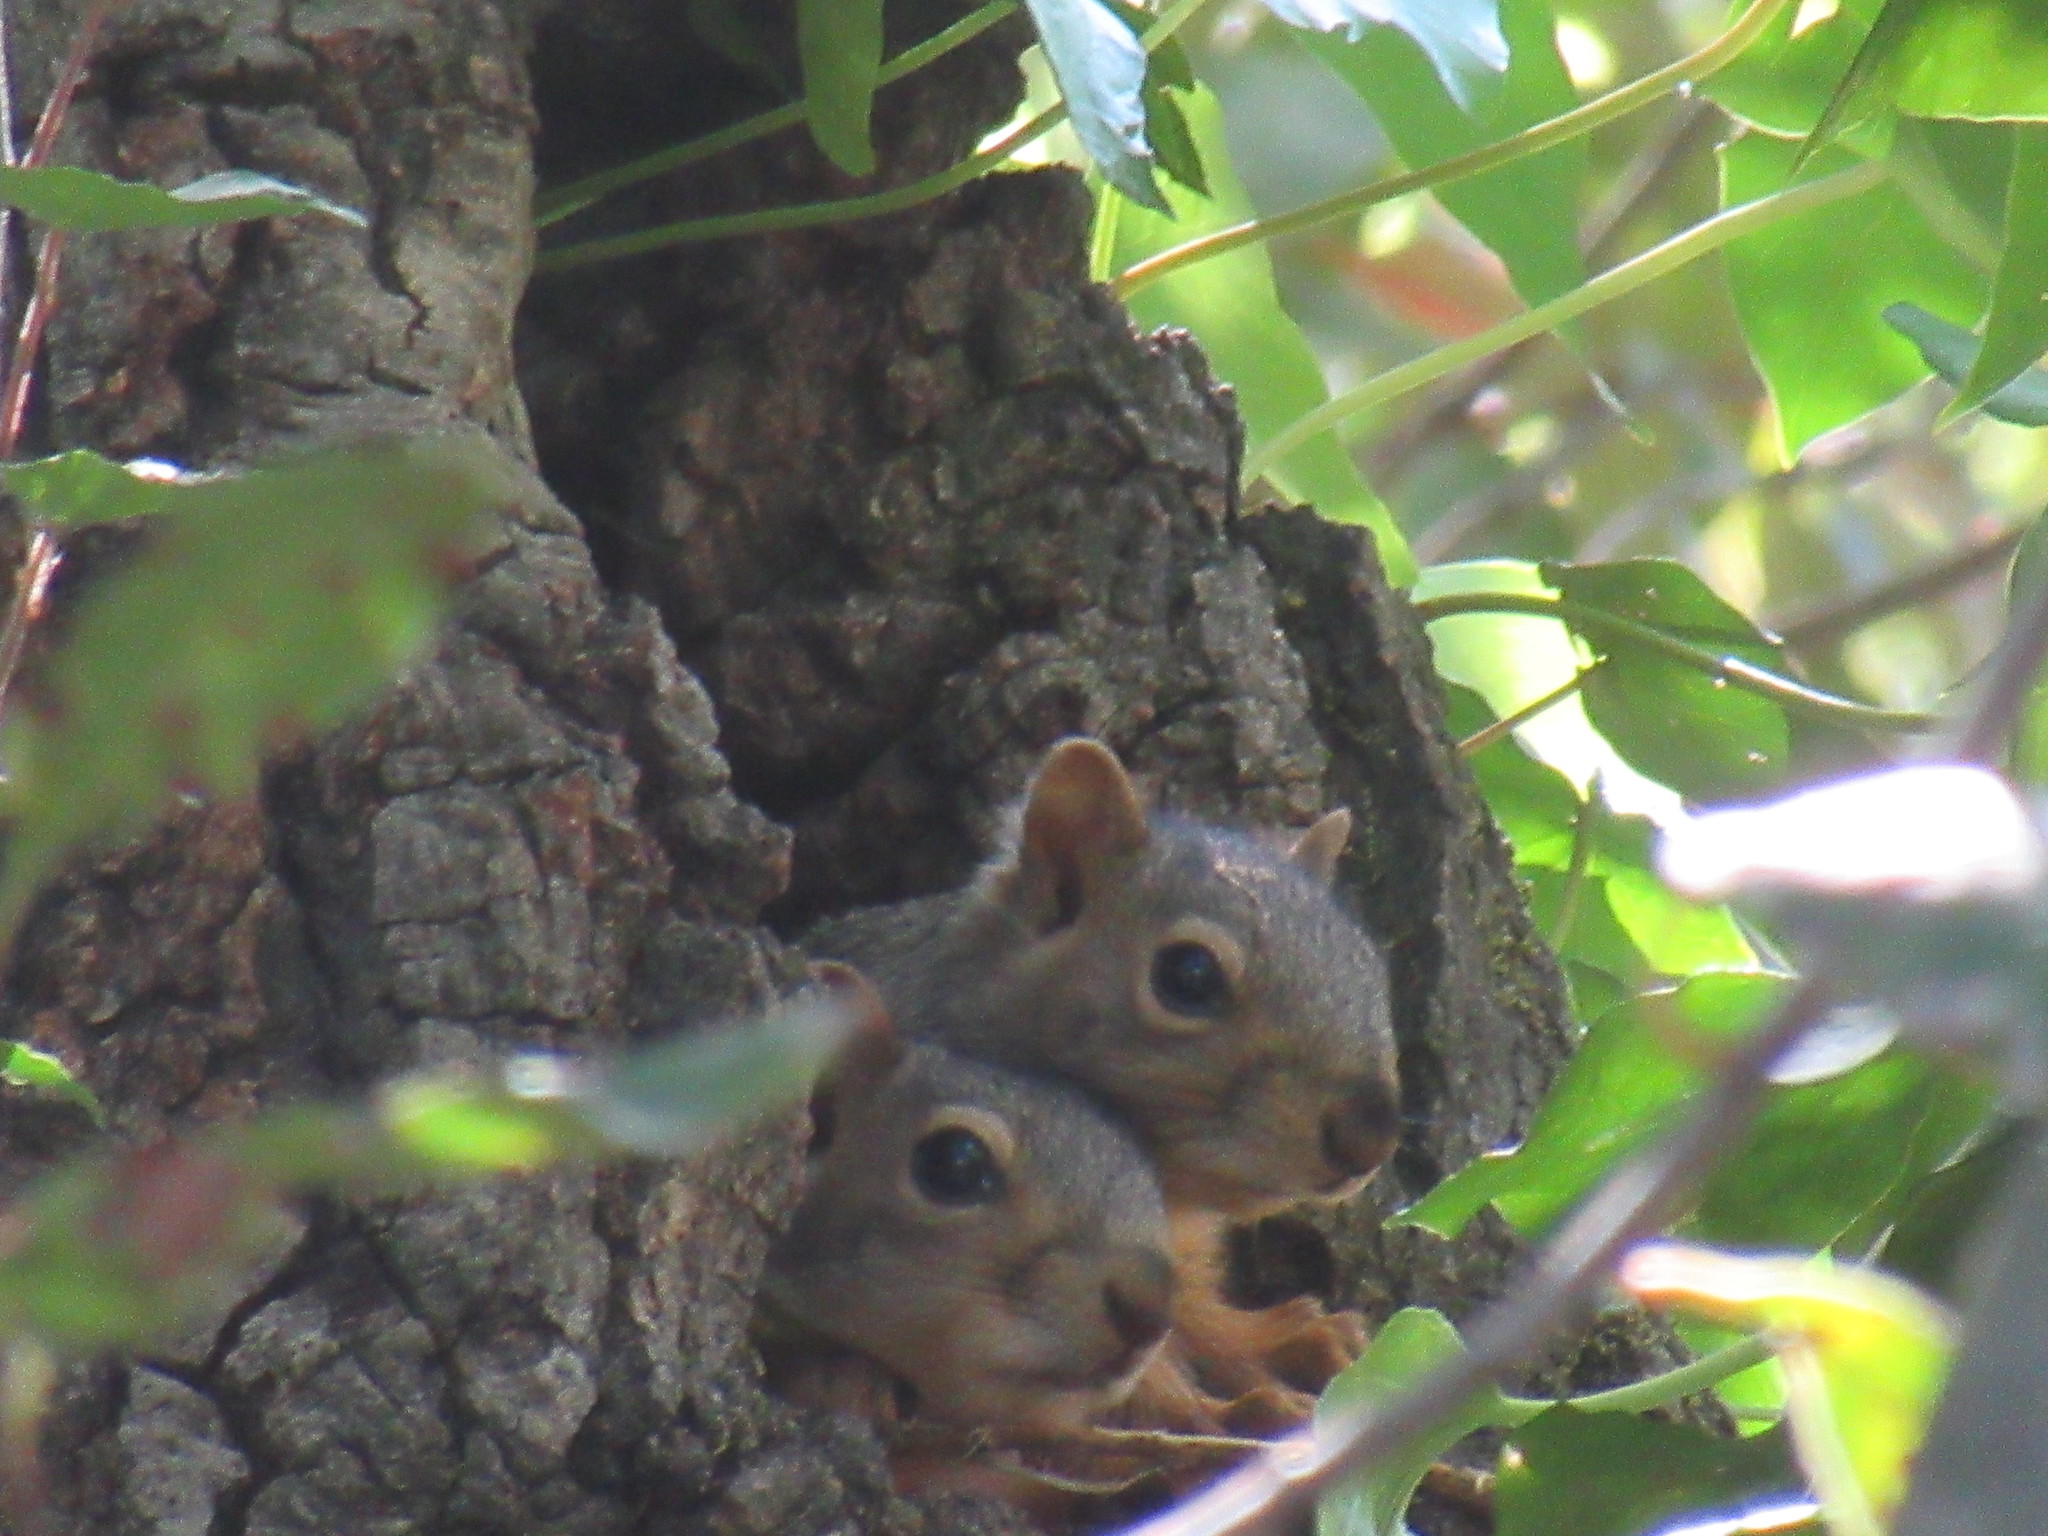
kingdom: Animalia
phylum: Chordata
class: Mammalia
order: Rodentia
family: Sciuridae
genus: Sciurus
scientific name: Sciurus niger
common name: Fox squirrel
